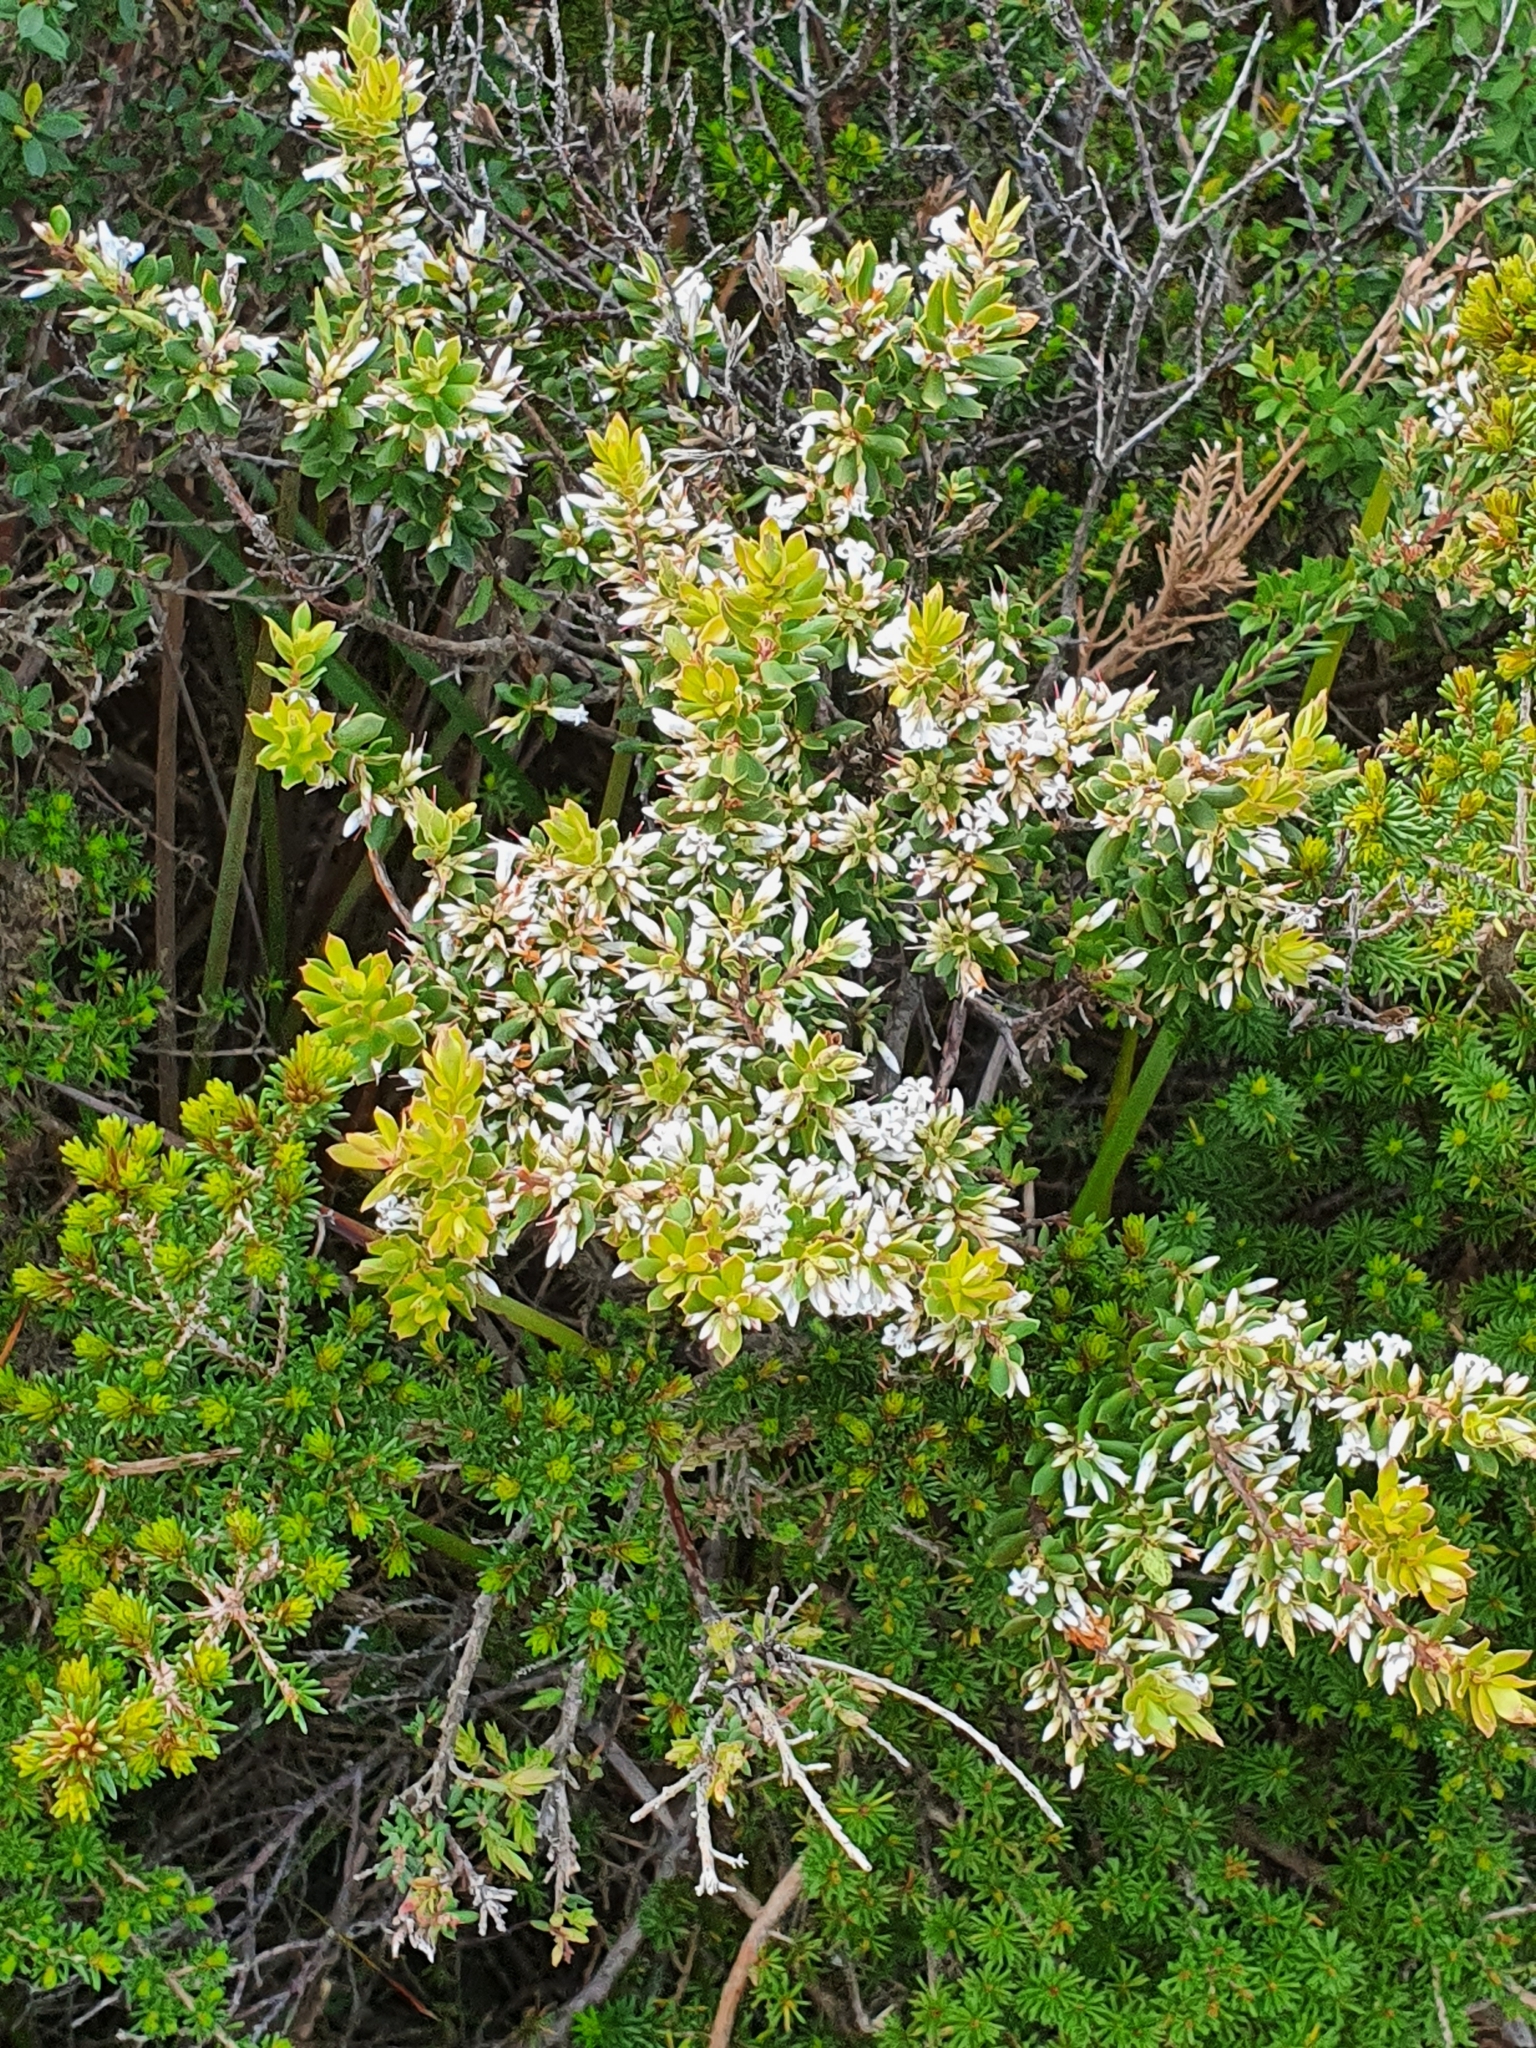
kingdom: Plantae
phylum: Tracheophyta
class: Magnoliopsida
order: Ericales
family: Ericaceae
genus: Styphelia
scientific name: Styphelia ericoides
